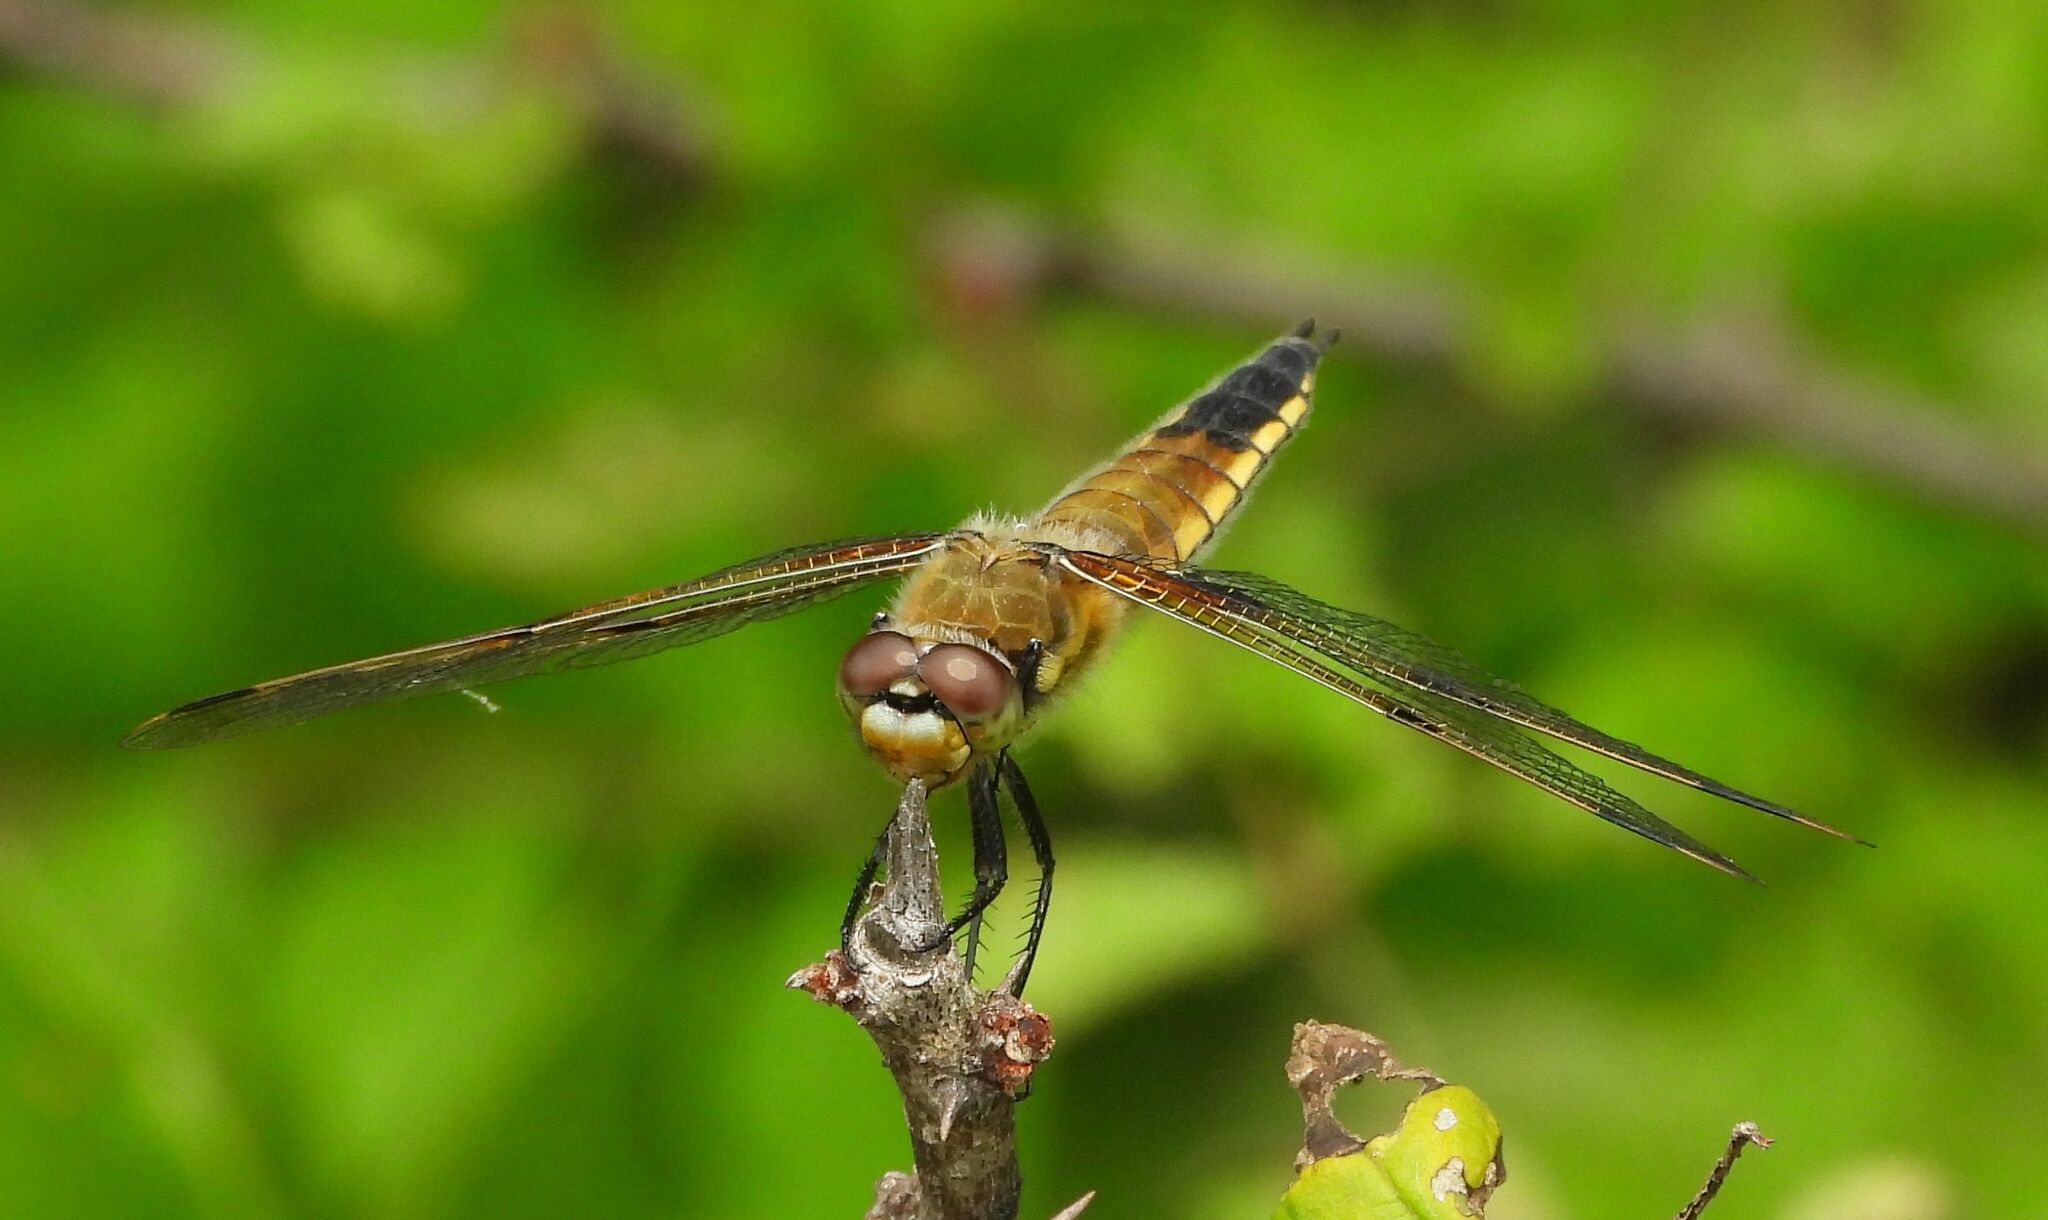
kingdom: Animalia
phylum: Arthropoda
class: Insecta
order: Odonata
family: Libellulidae
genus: Libellula
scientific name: Libellula quadrimaculata
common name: Four-spotted chaser
